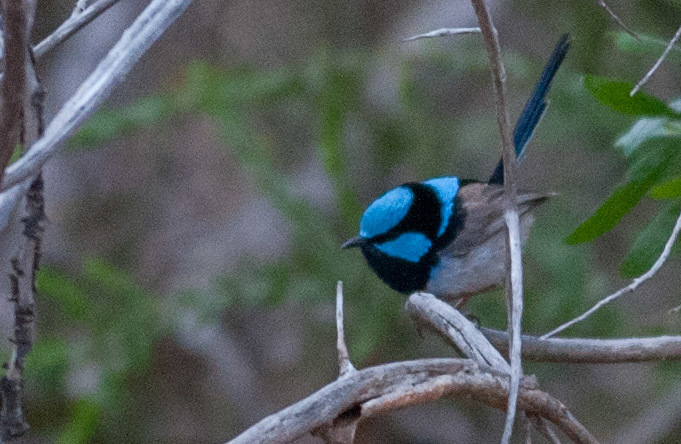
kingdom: Animalia
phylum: Chordata
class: Aves
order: Passeriformes
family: Maluridae
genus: Malurus
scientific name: Malurus cyaneus
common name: Superb fairywren
